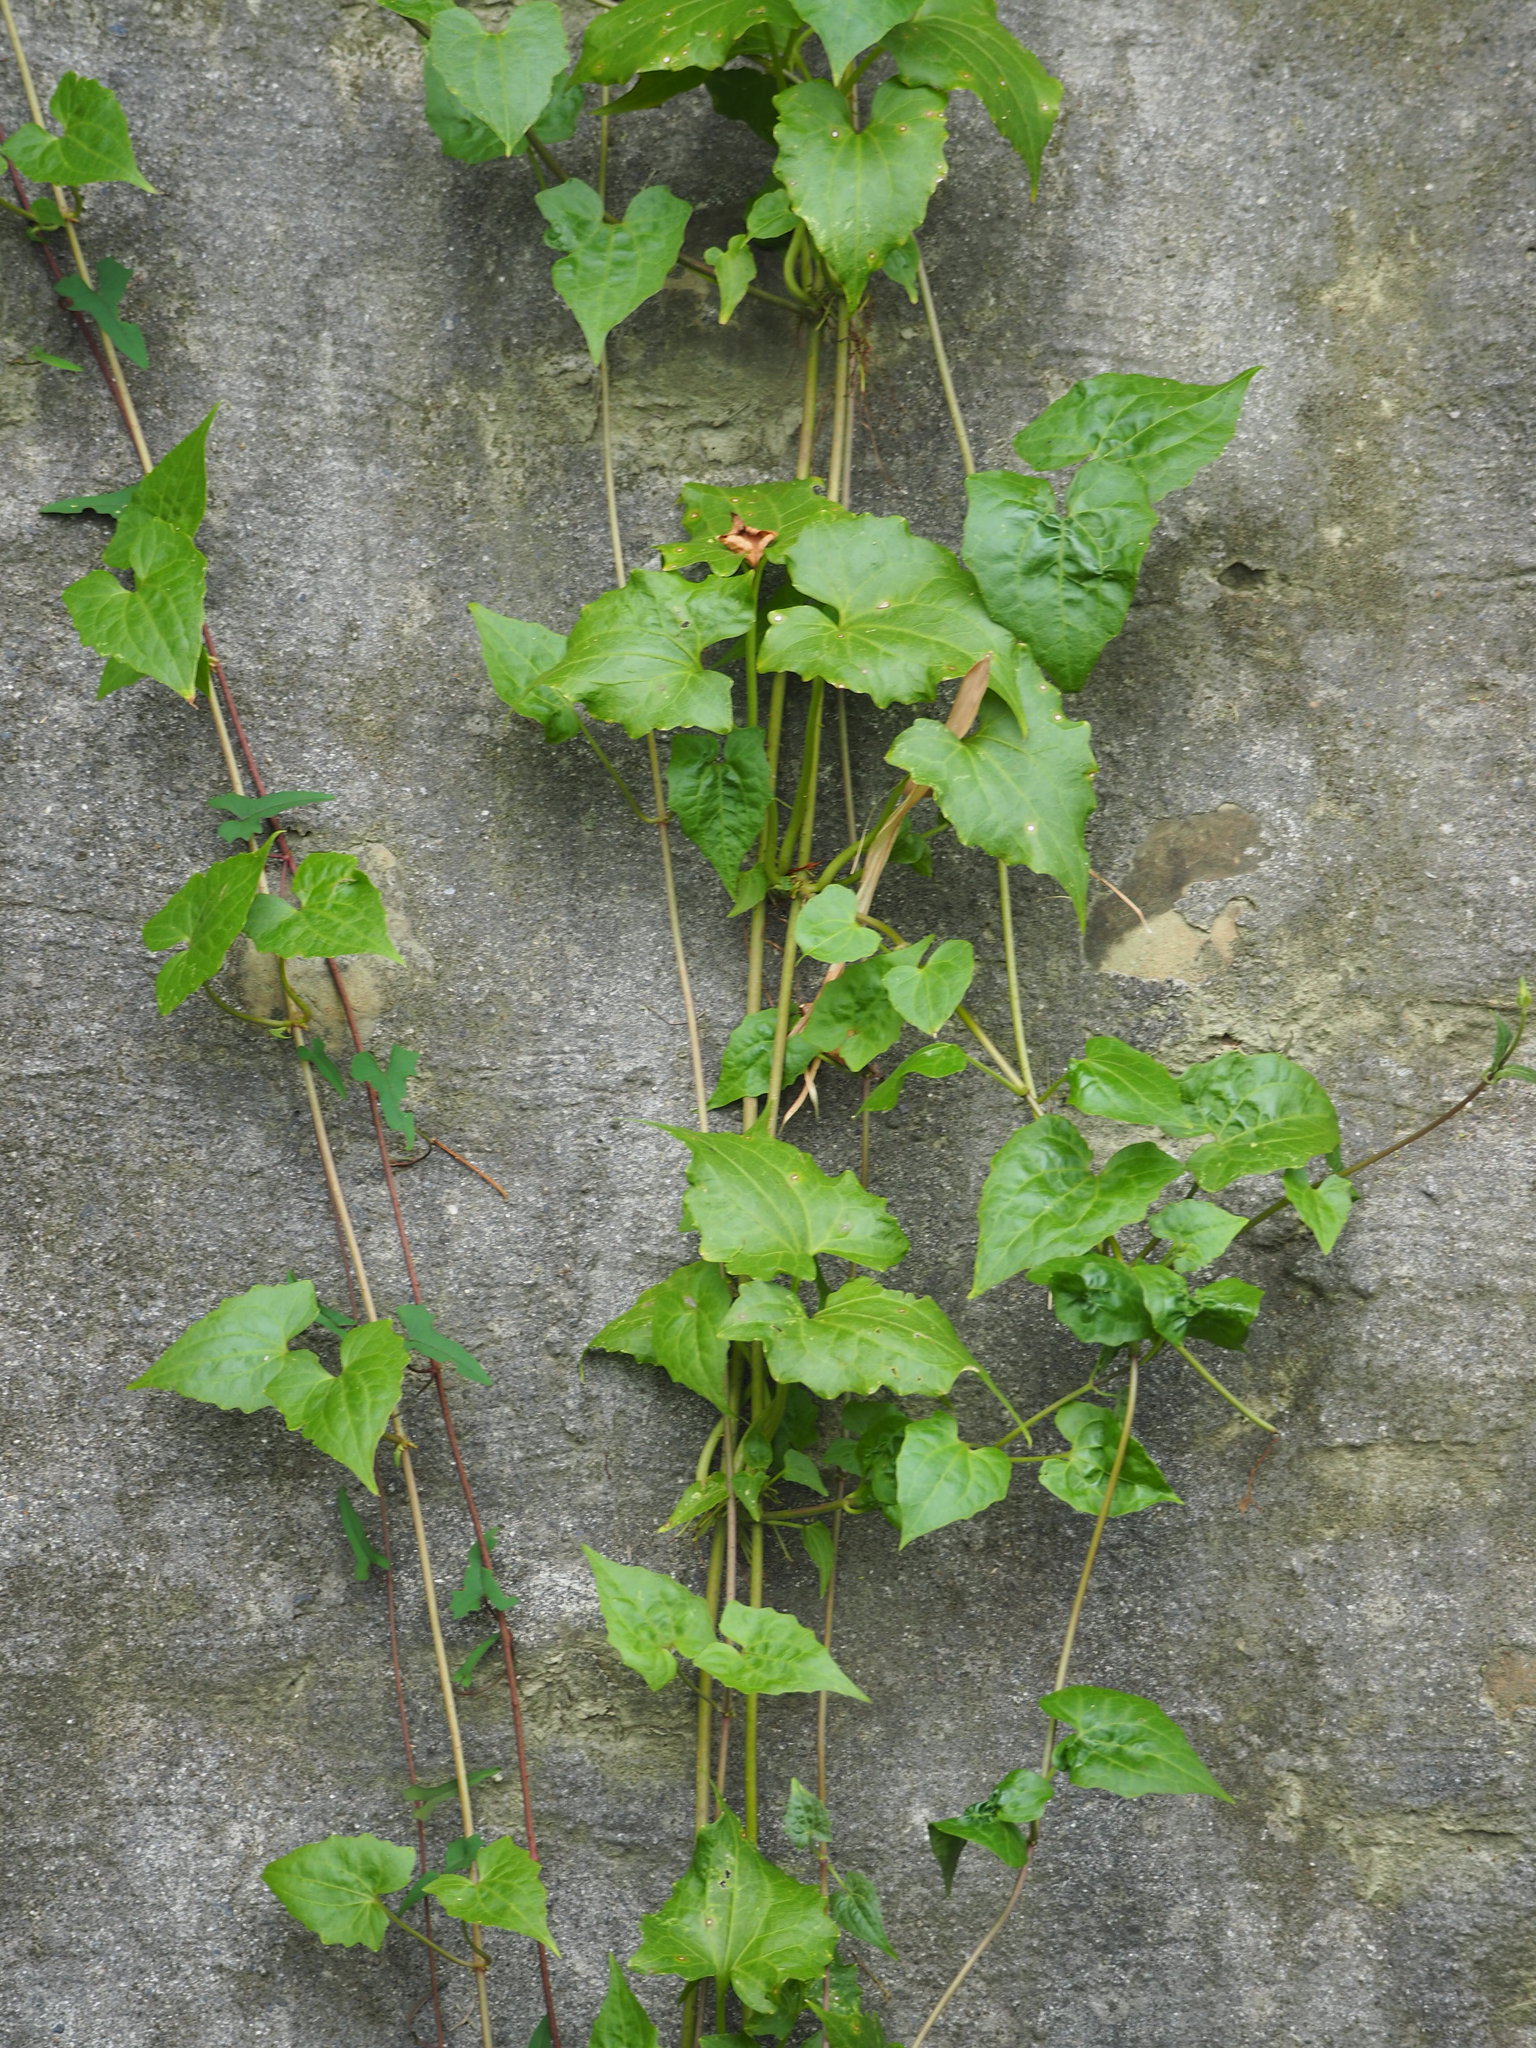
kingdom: Plantae
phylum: Tracheophyta
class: Magnoliopsida
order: Asterales
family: Asteraceae
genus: Mikania
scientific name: Mikania micrantha
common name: Mile-a-minute
